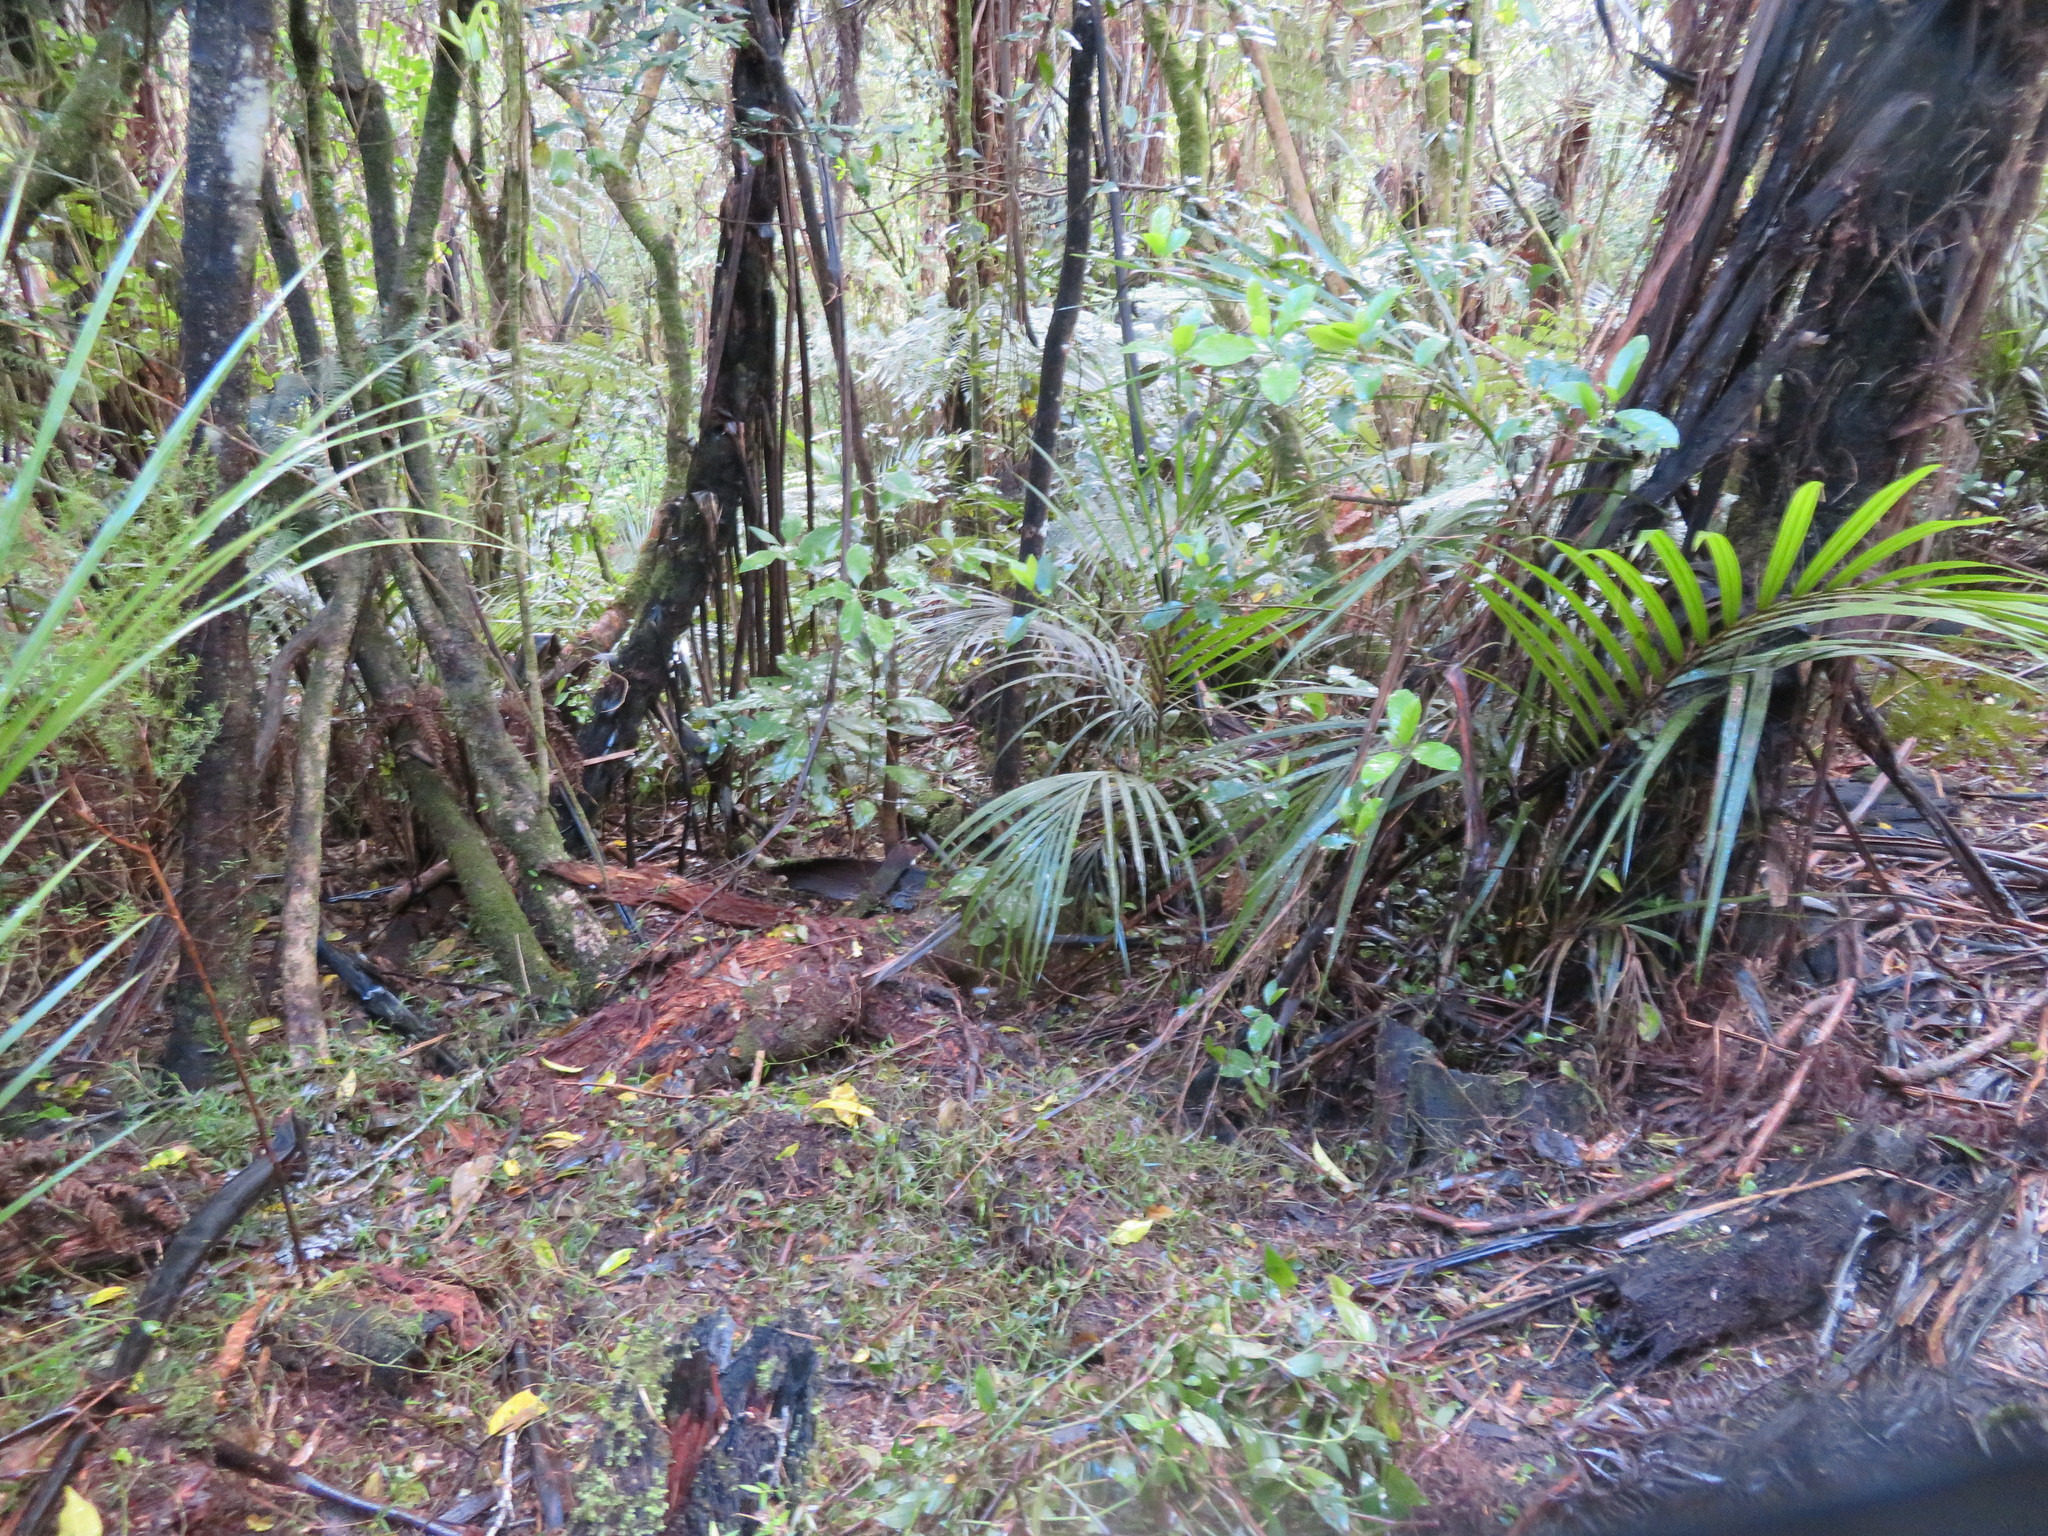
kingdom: Plantae
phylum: Tracheophyta
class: Liliopsida
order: Poales
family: Poaceae
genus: Oplismenus
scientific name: Oplismenus hirtellus
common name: Basketgrass
